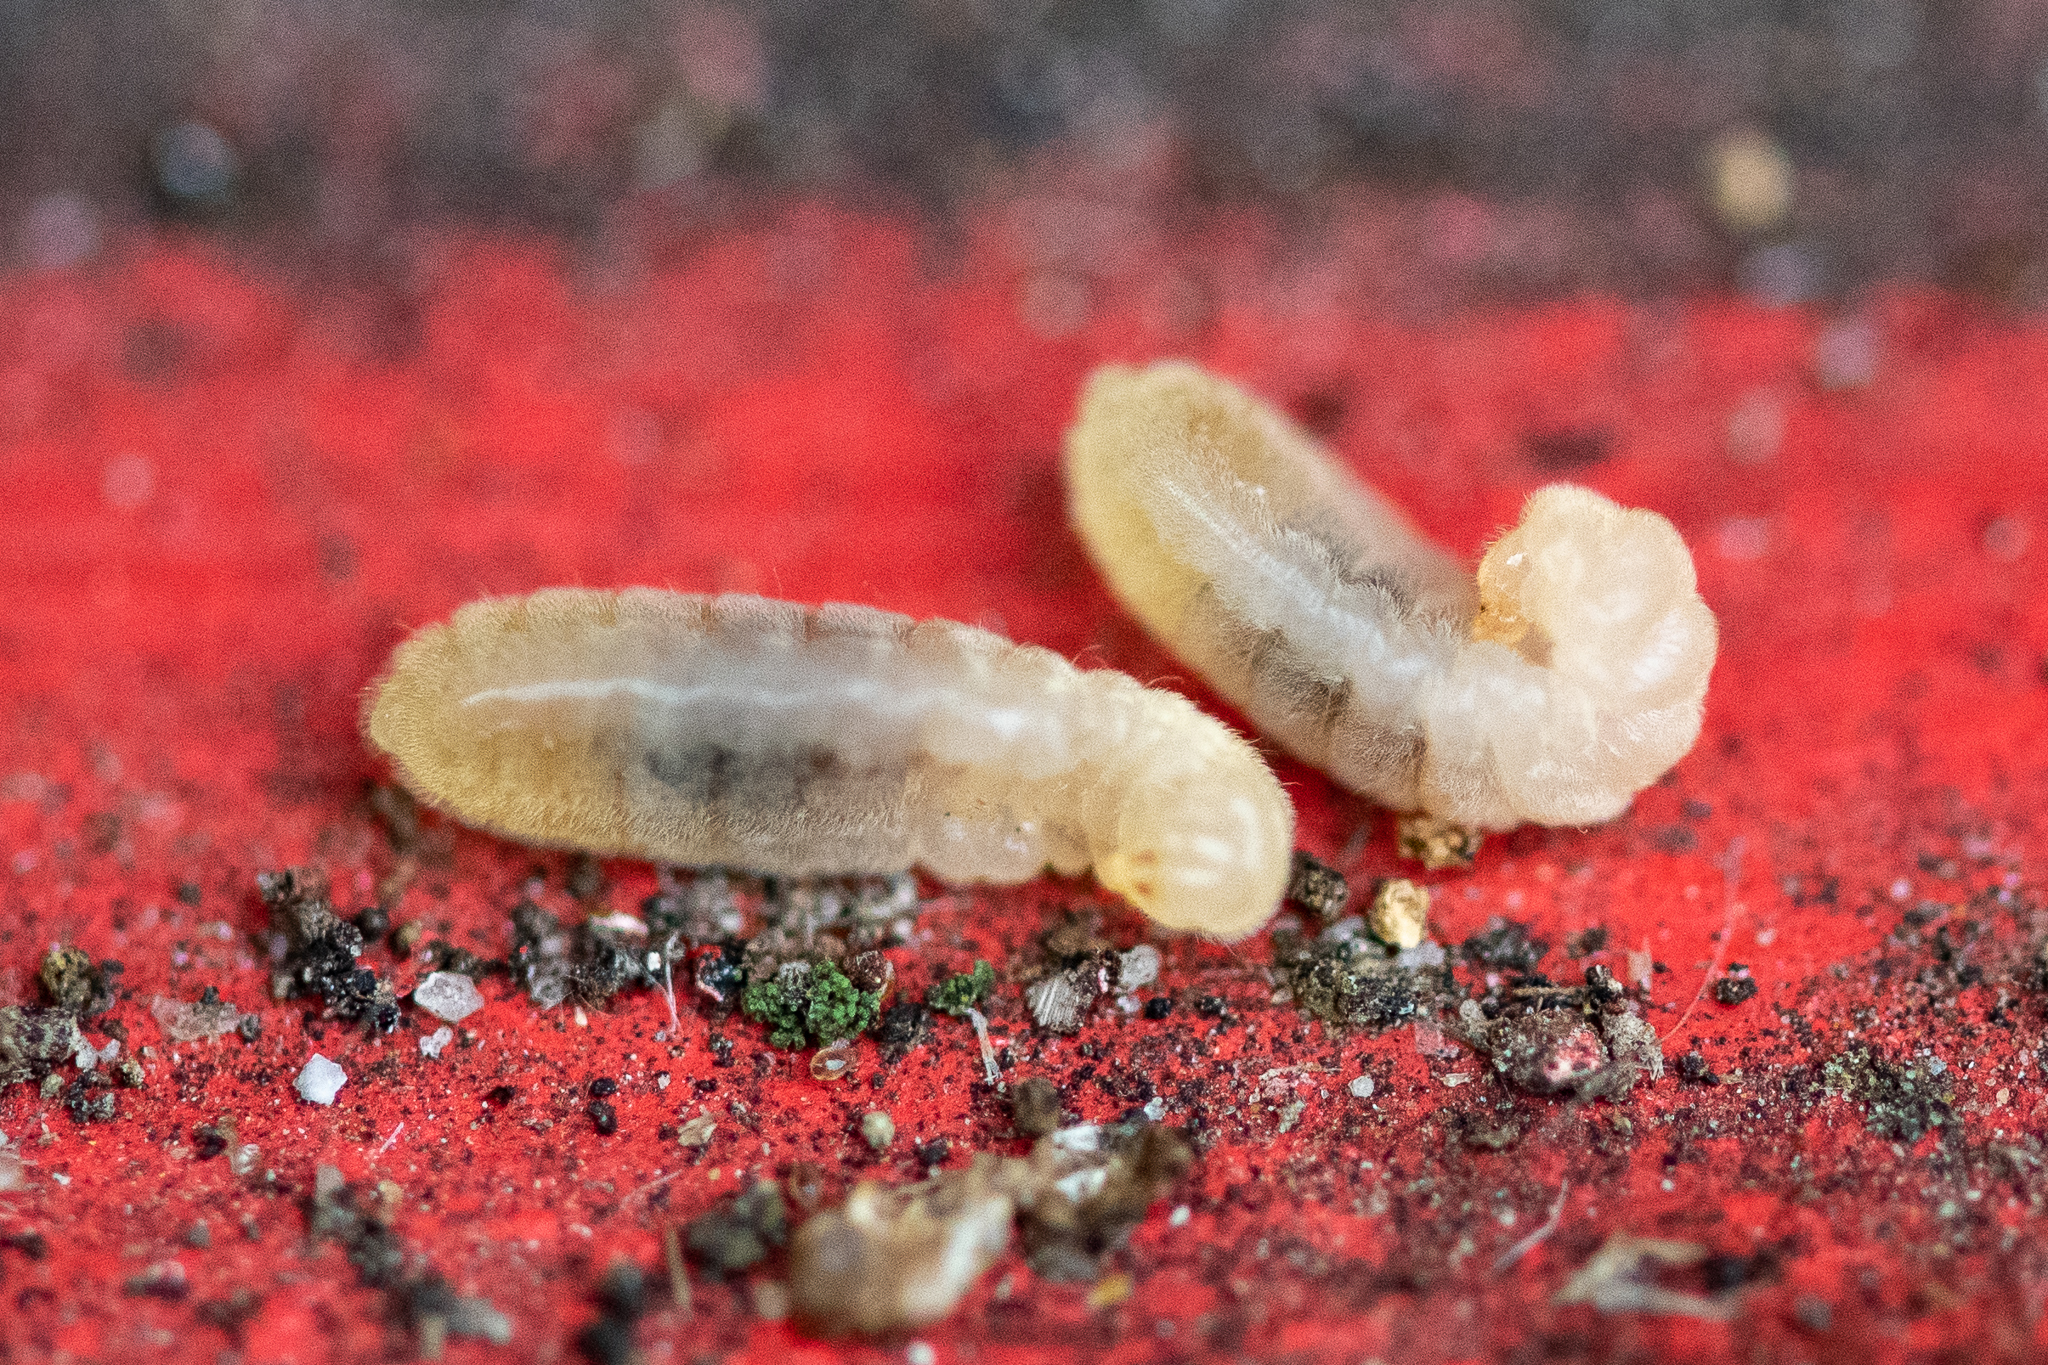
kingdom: Animalia
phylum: Arthropoda
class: Insecta
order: Hymenoptera
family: Formicidae
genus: Camponotus
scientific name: Camponotus werthi
